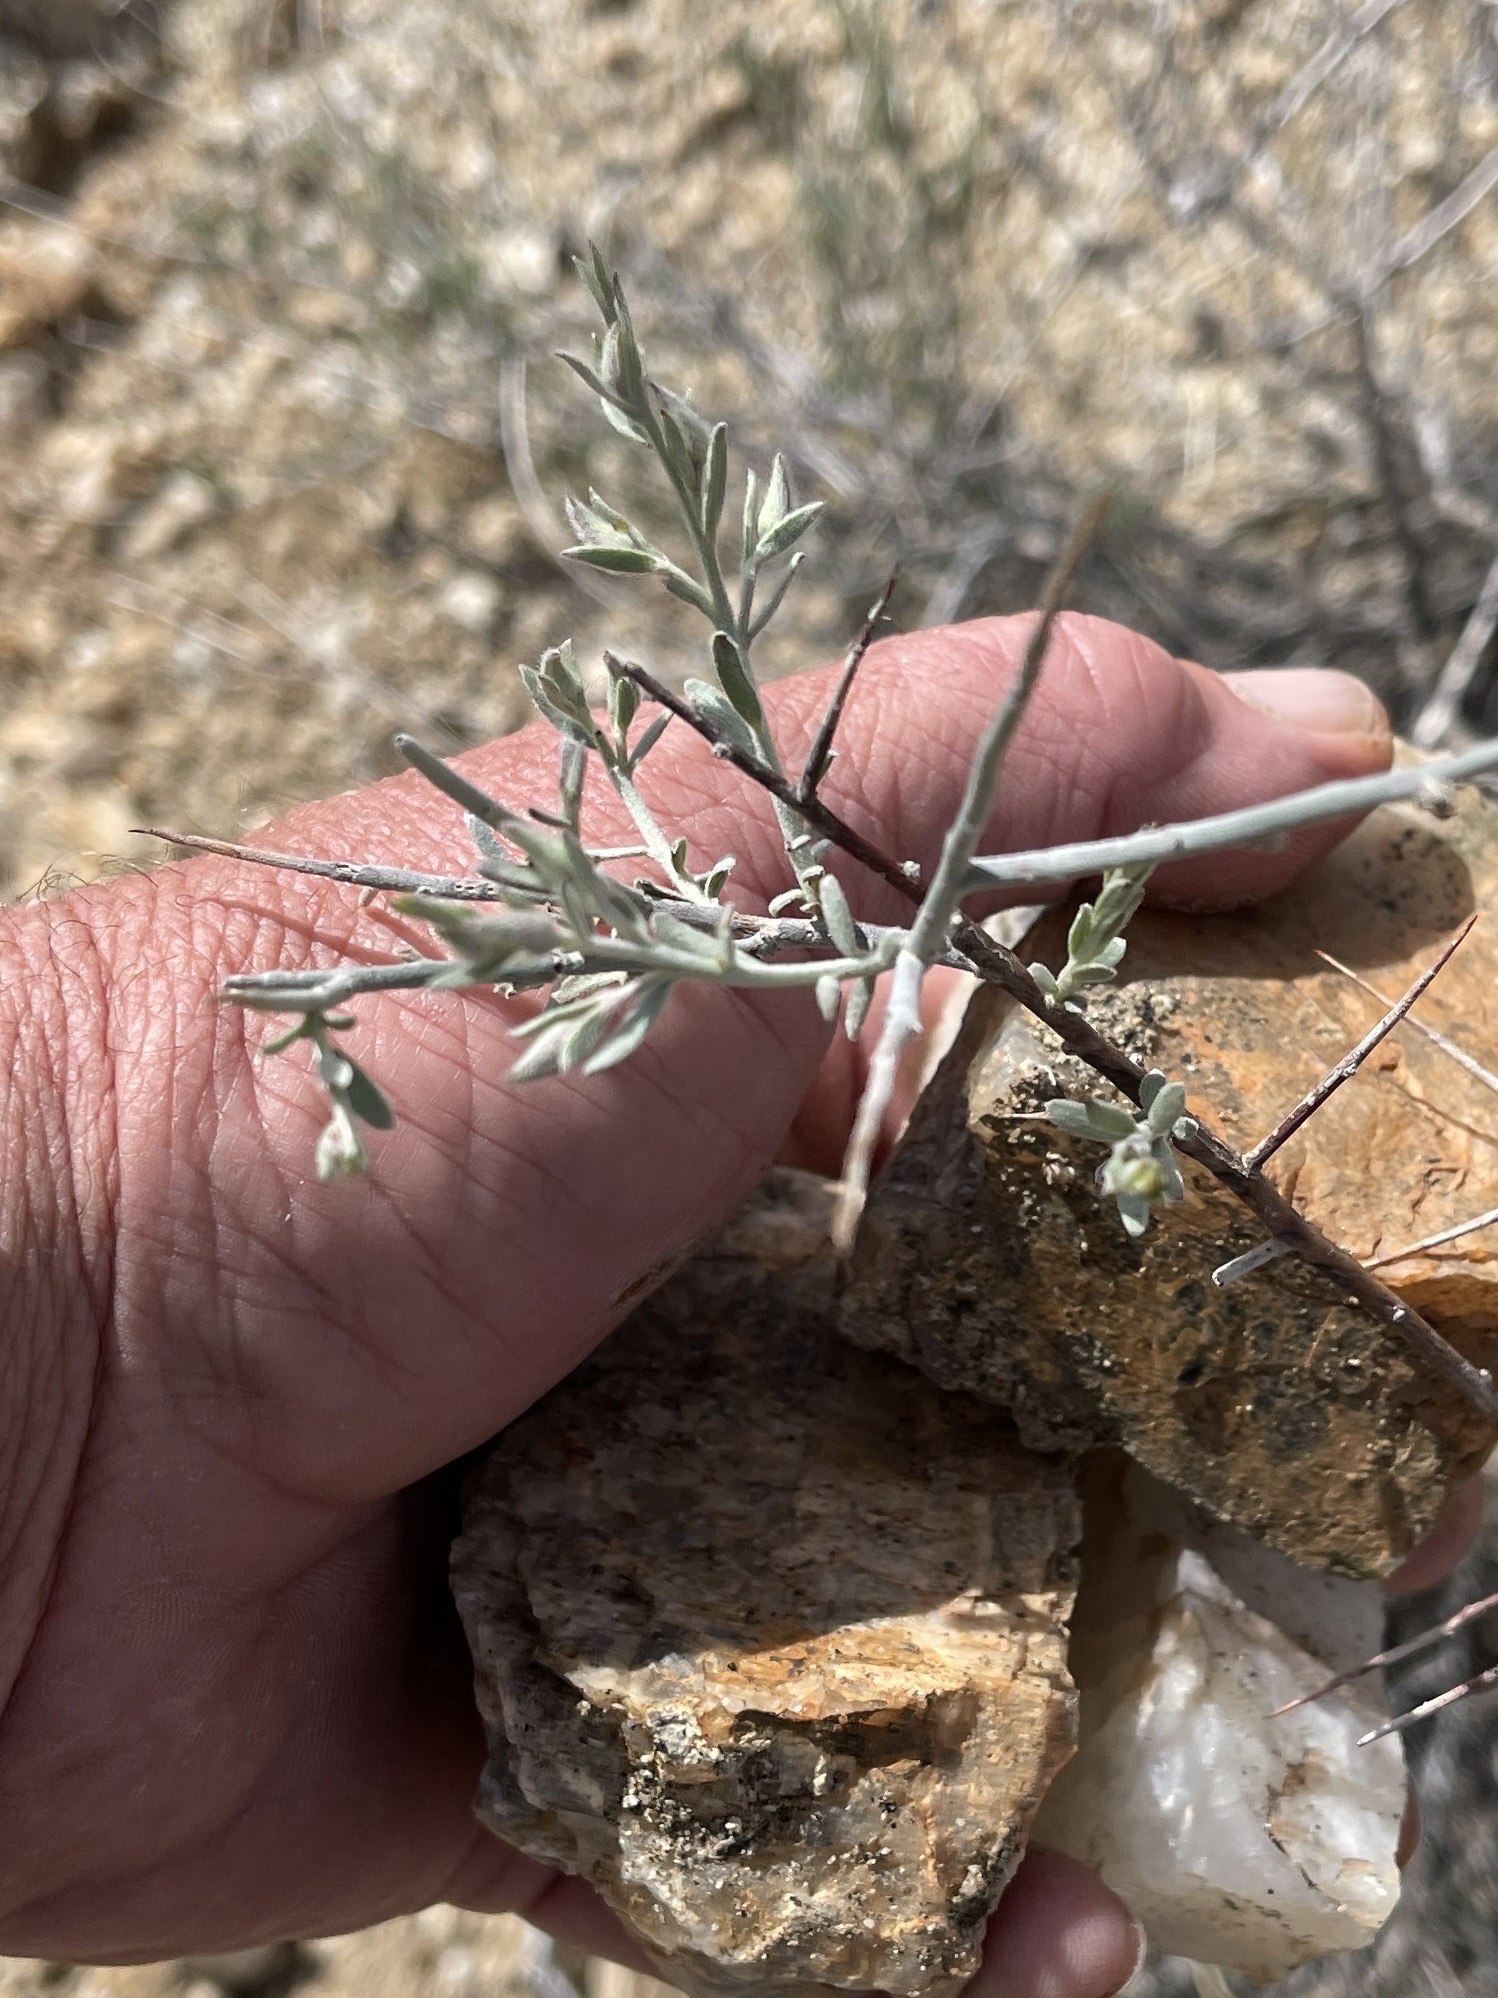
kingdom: Plantae
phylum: Tracheophyta
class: Magnoliopsida
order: Malpighiales
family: Euphorbiaceae
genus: Ditaxis
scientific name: Ditaxis lanceolata
